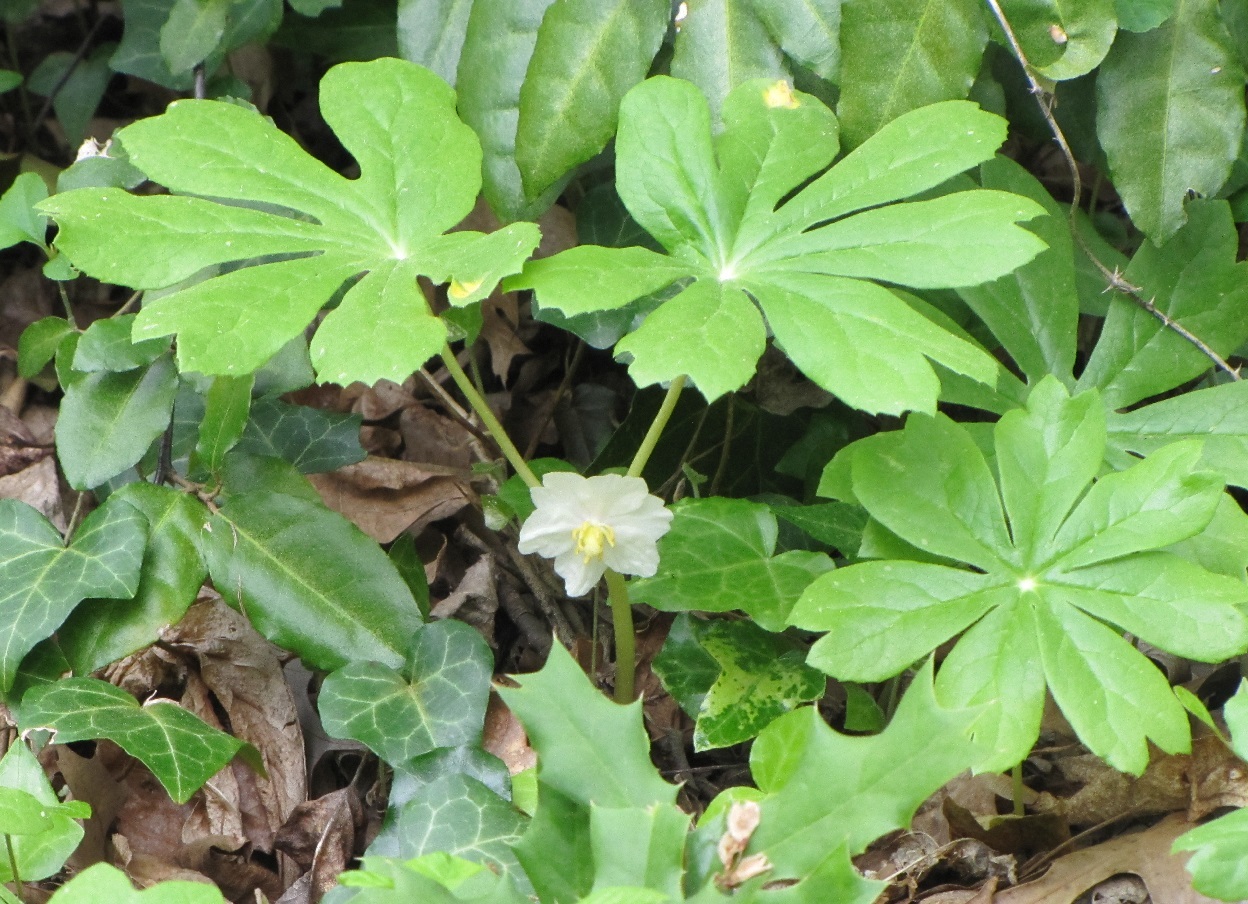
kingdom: Plantae
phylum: Tracheophyta
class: Magnoliopsida
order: Ranunculales
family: Berberidaceae
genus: Podophyllum
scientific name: Podophyllum peltatum
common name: Wild mandrake
